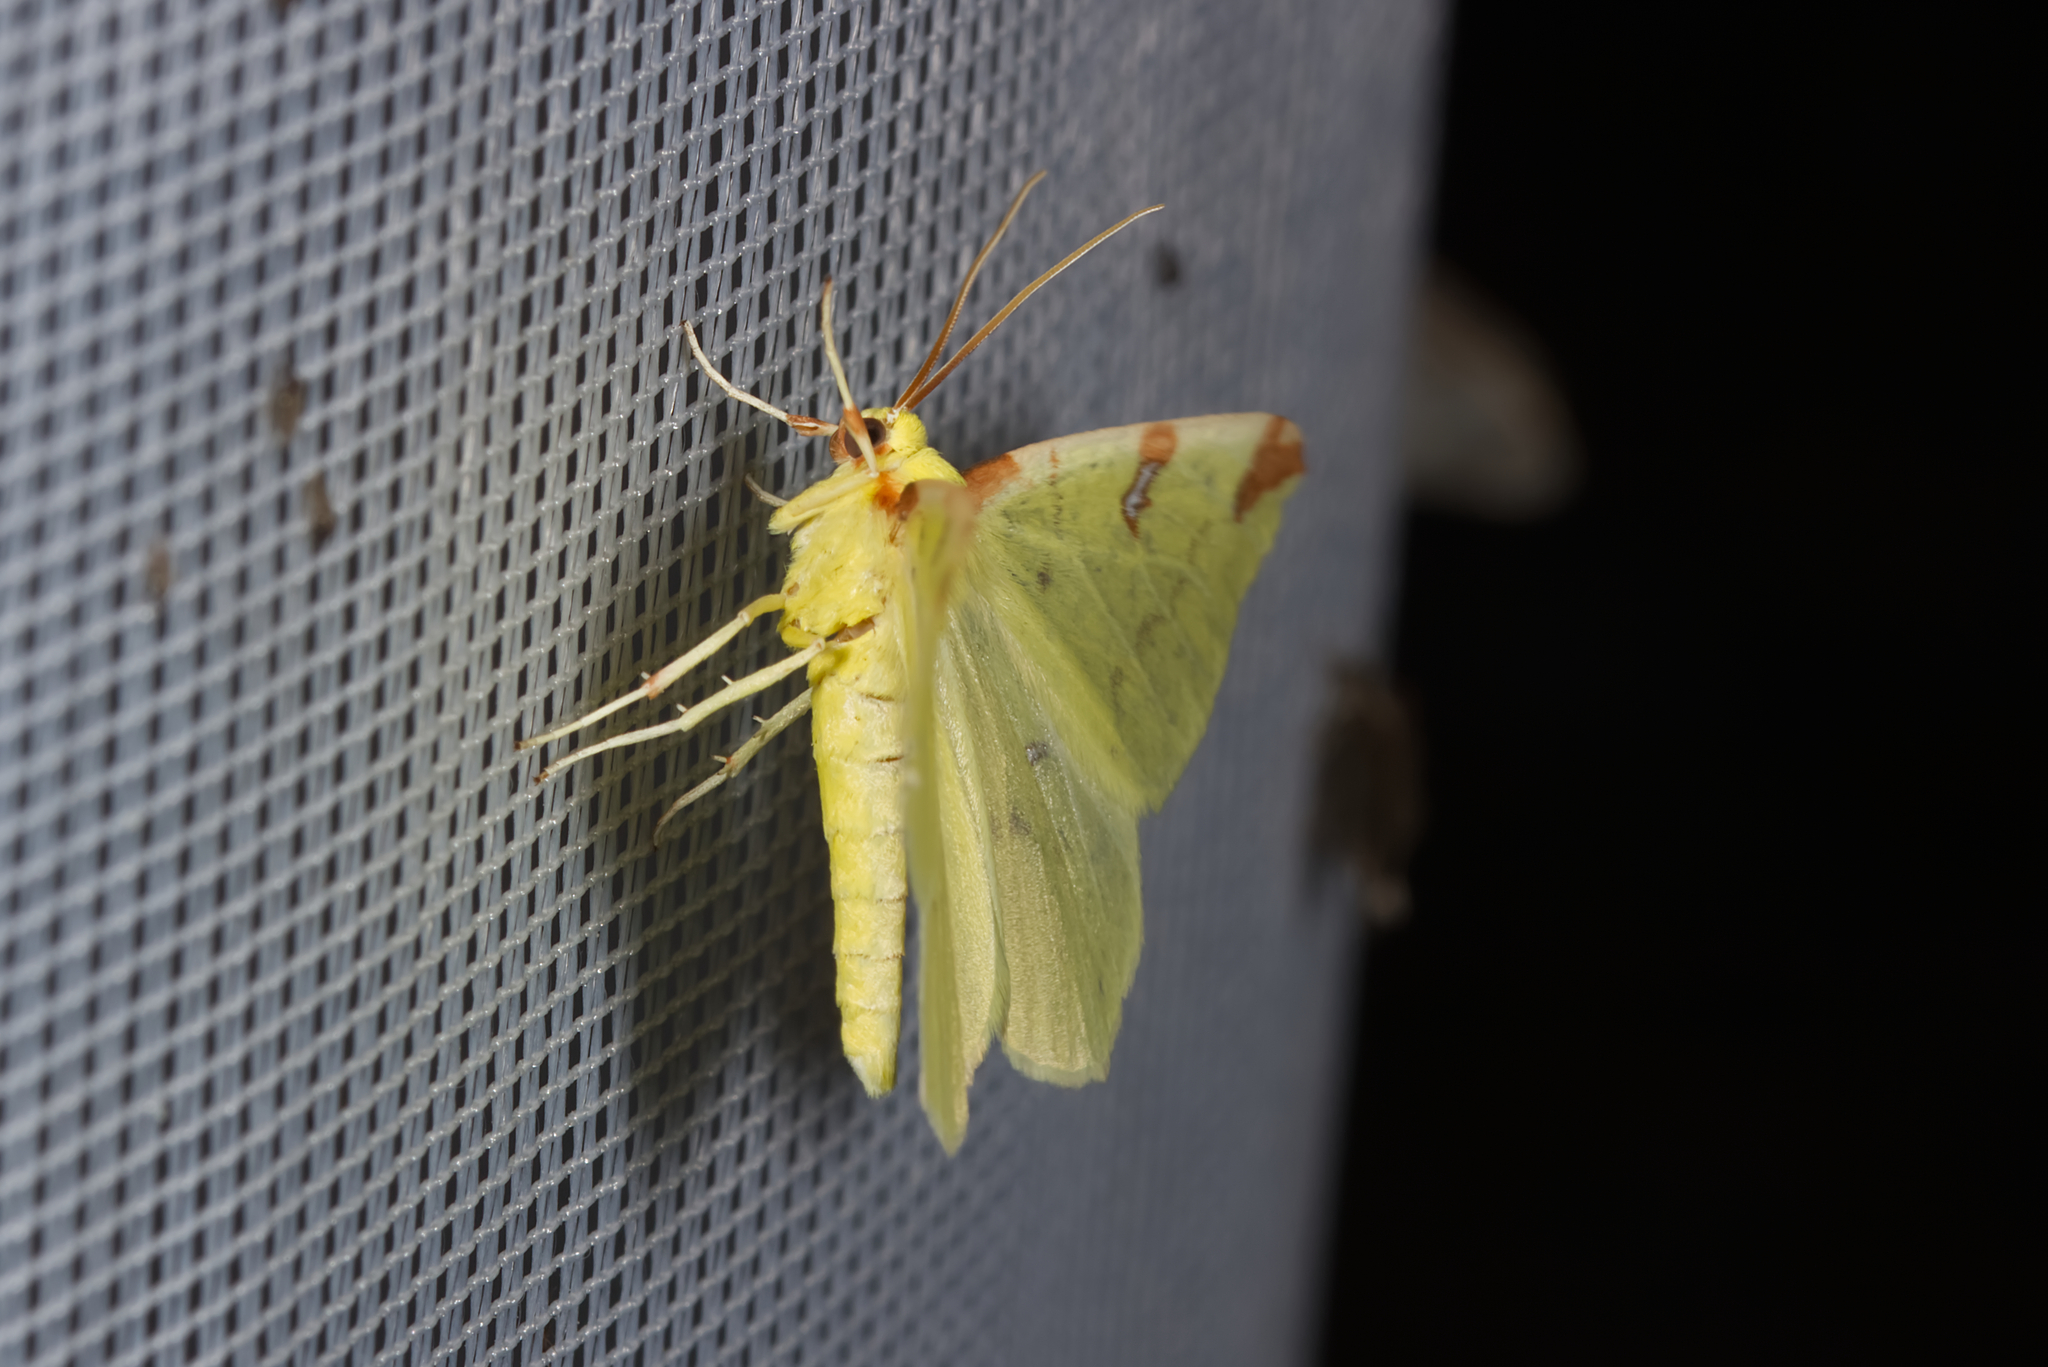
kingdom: Animalia
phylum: Arthropoda
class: Insecta
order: Lepidoptera
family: Geometridae
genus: Opisthograptis
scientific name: Opisthograptis luteolata
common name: Brimstone moth
